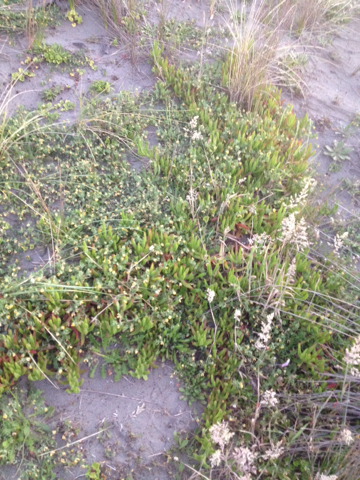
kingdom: Plantae
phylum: Tracheophyta
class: Magnoliopsida
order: Caryophyllales
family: Aizoaceae
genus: Carpobrotus
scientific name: Carpobrotus edulis
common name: Hottentot-fig
